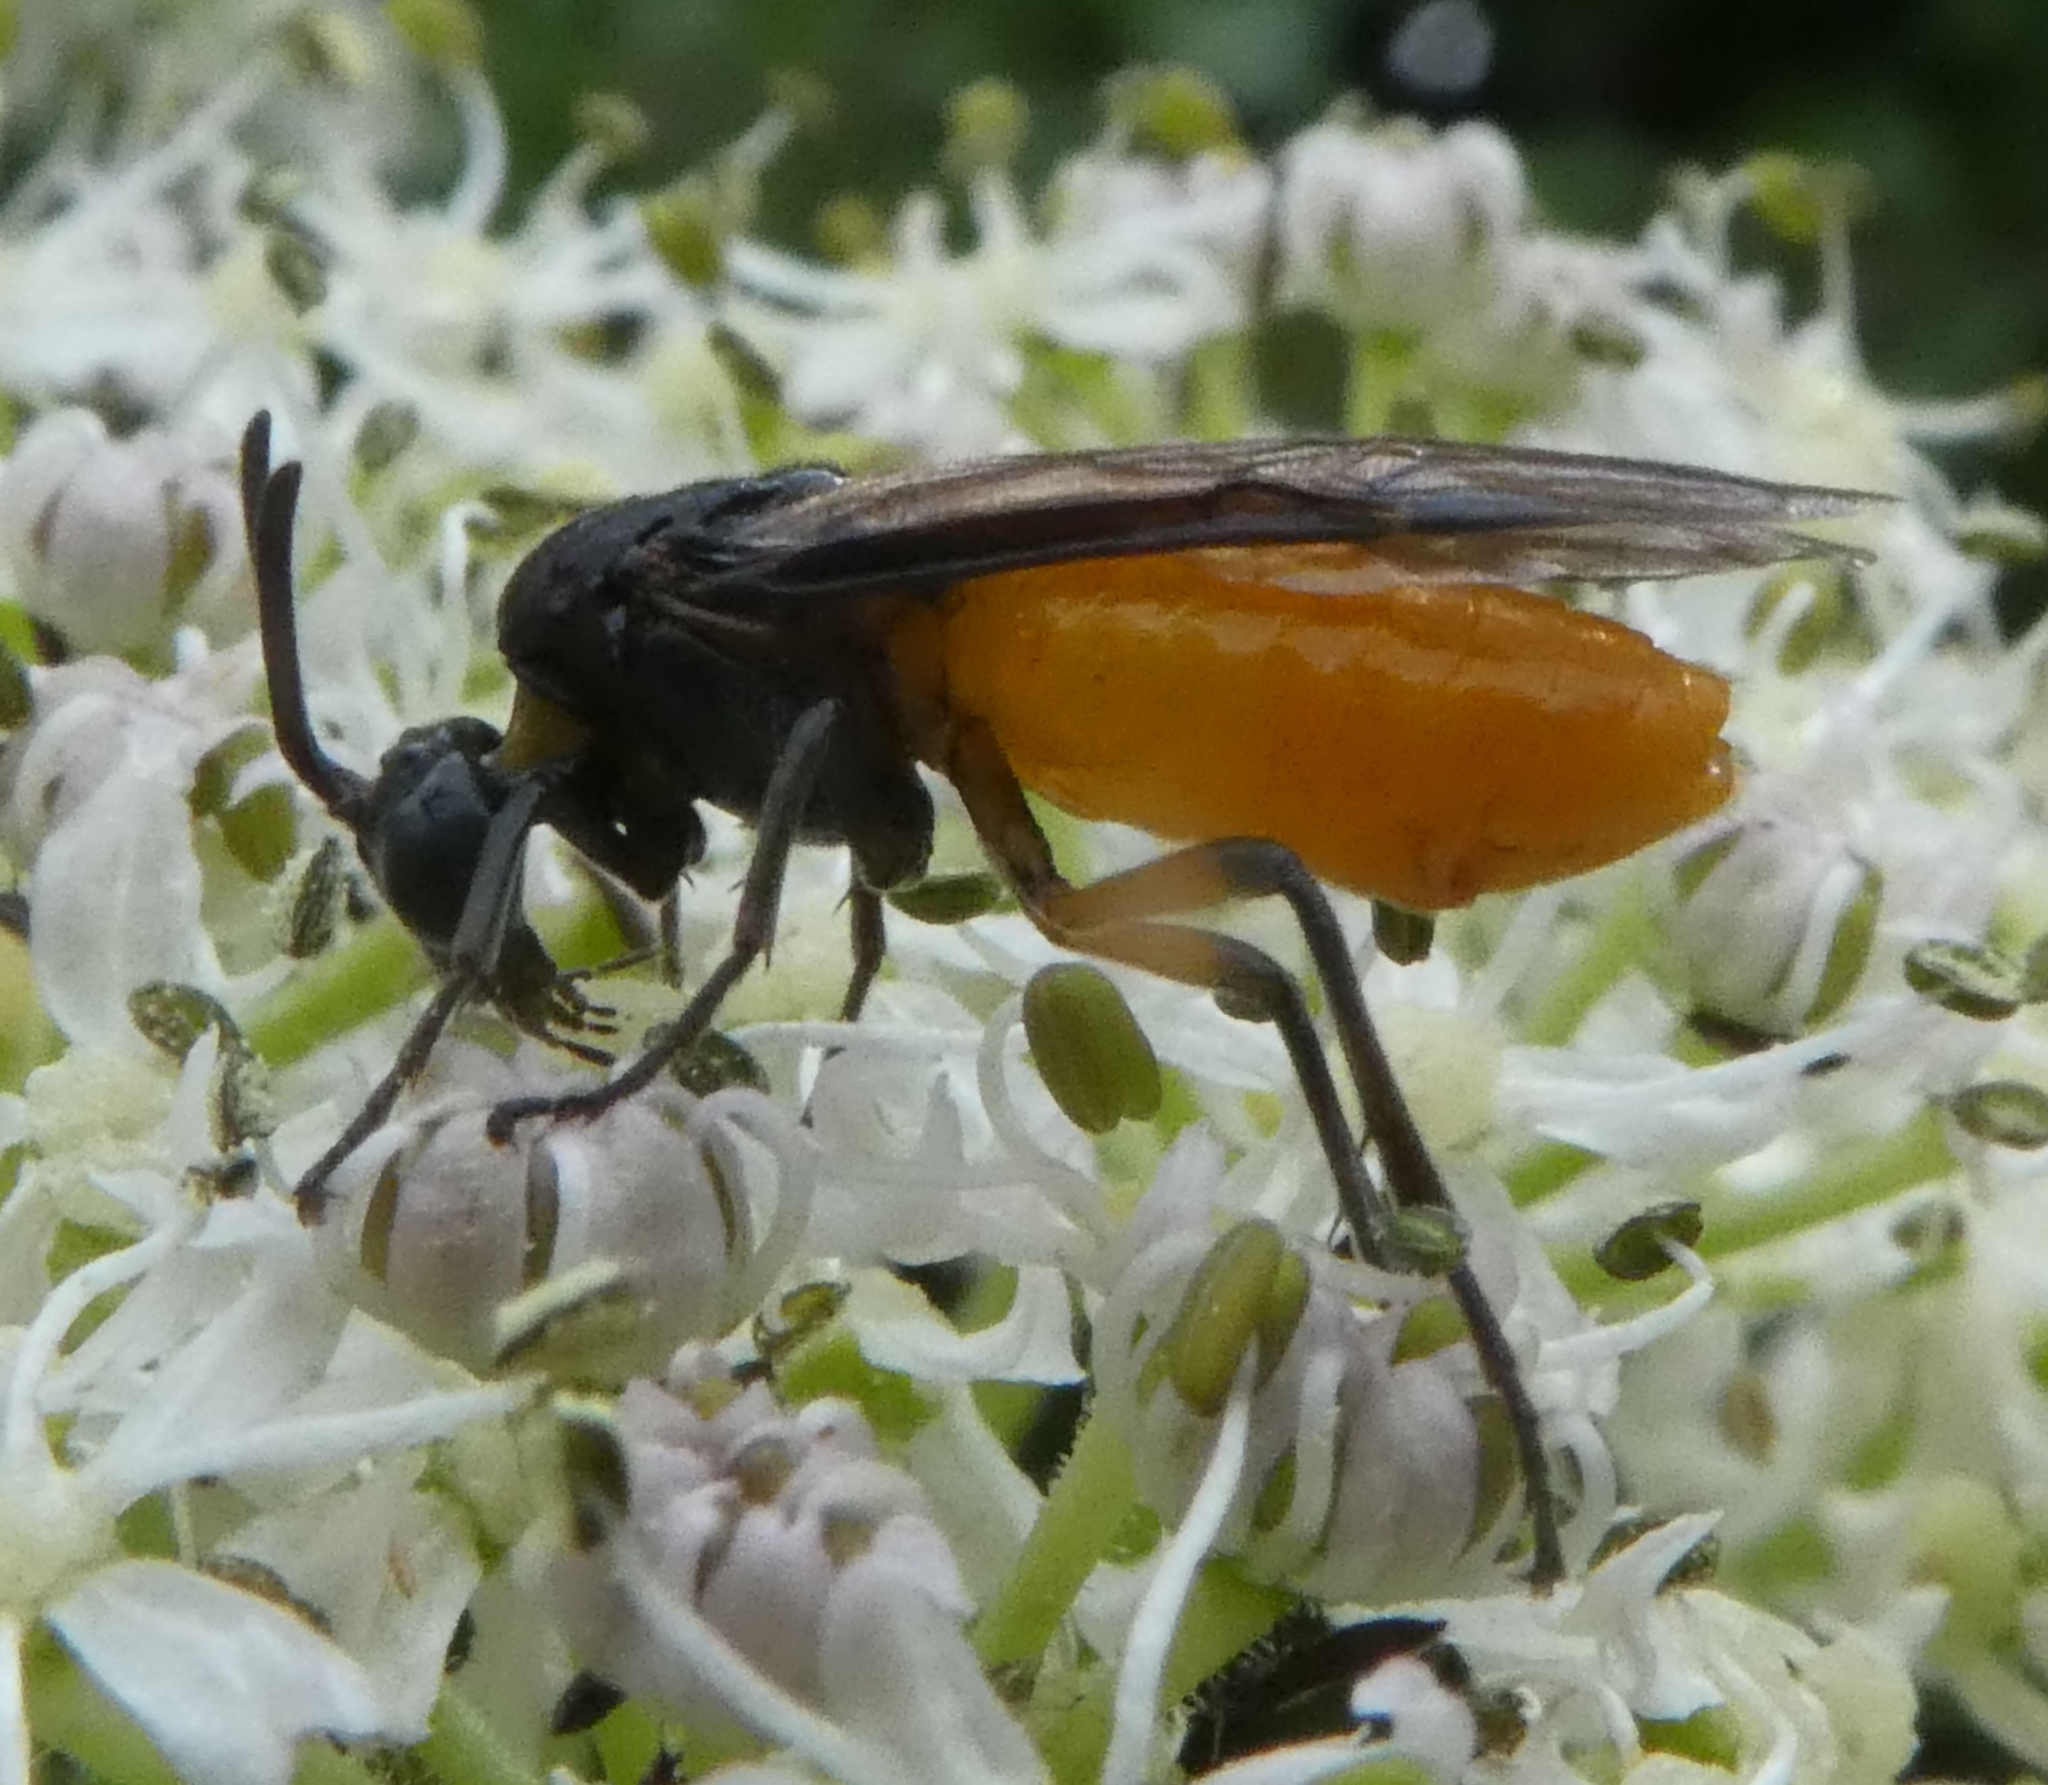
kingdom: Animalia
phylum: Arthropoda
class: Insecta
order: Hymenoptera
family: Argidae
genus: Arge
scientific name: Arge pagana
